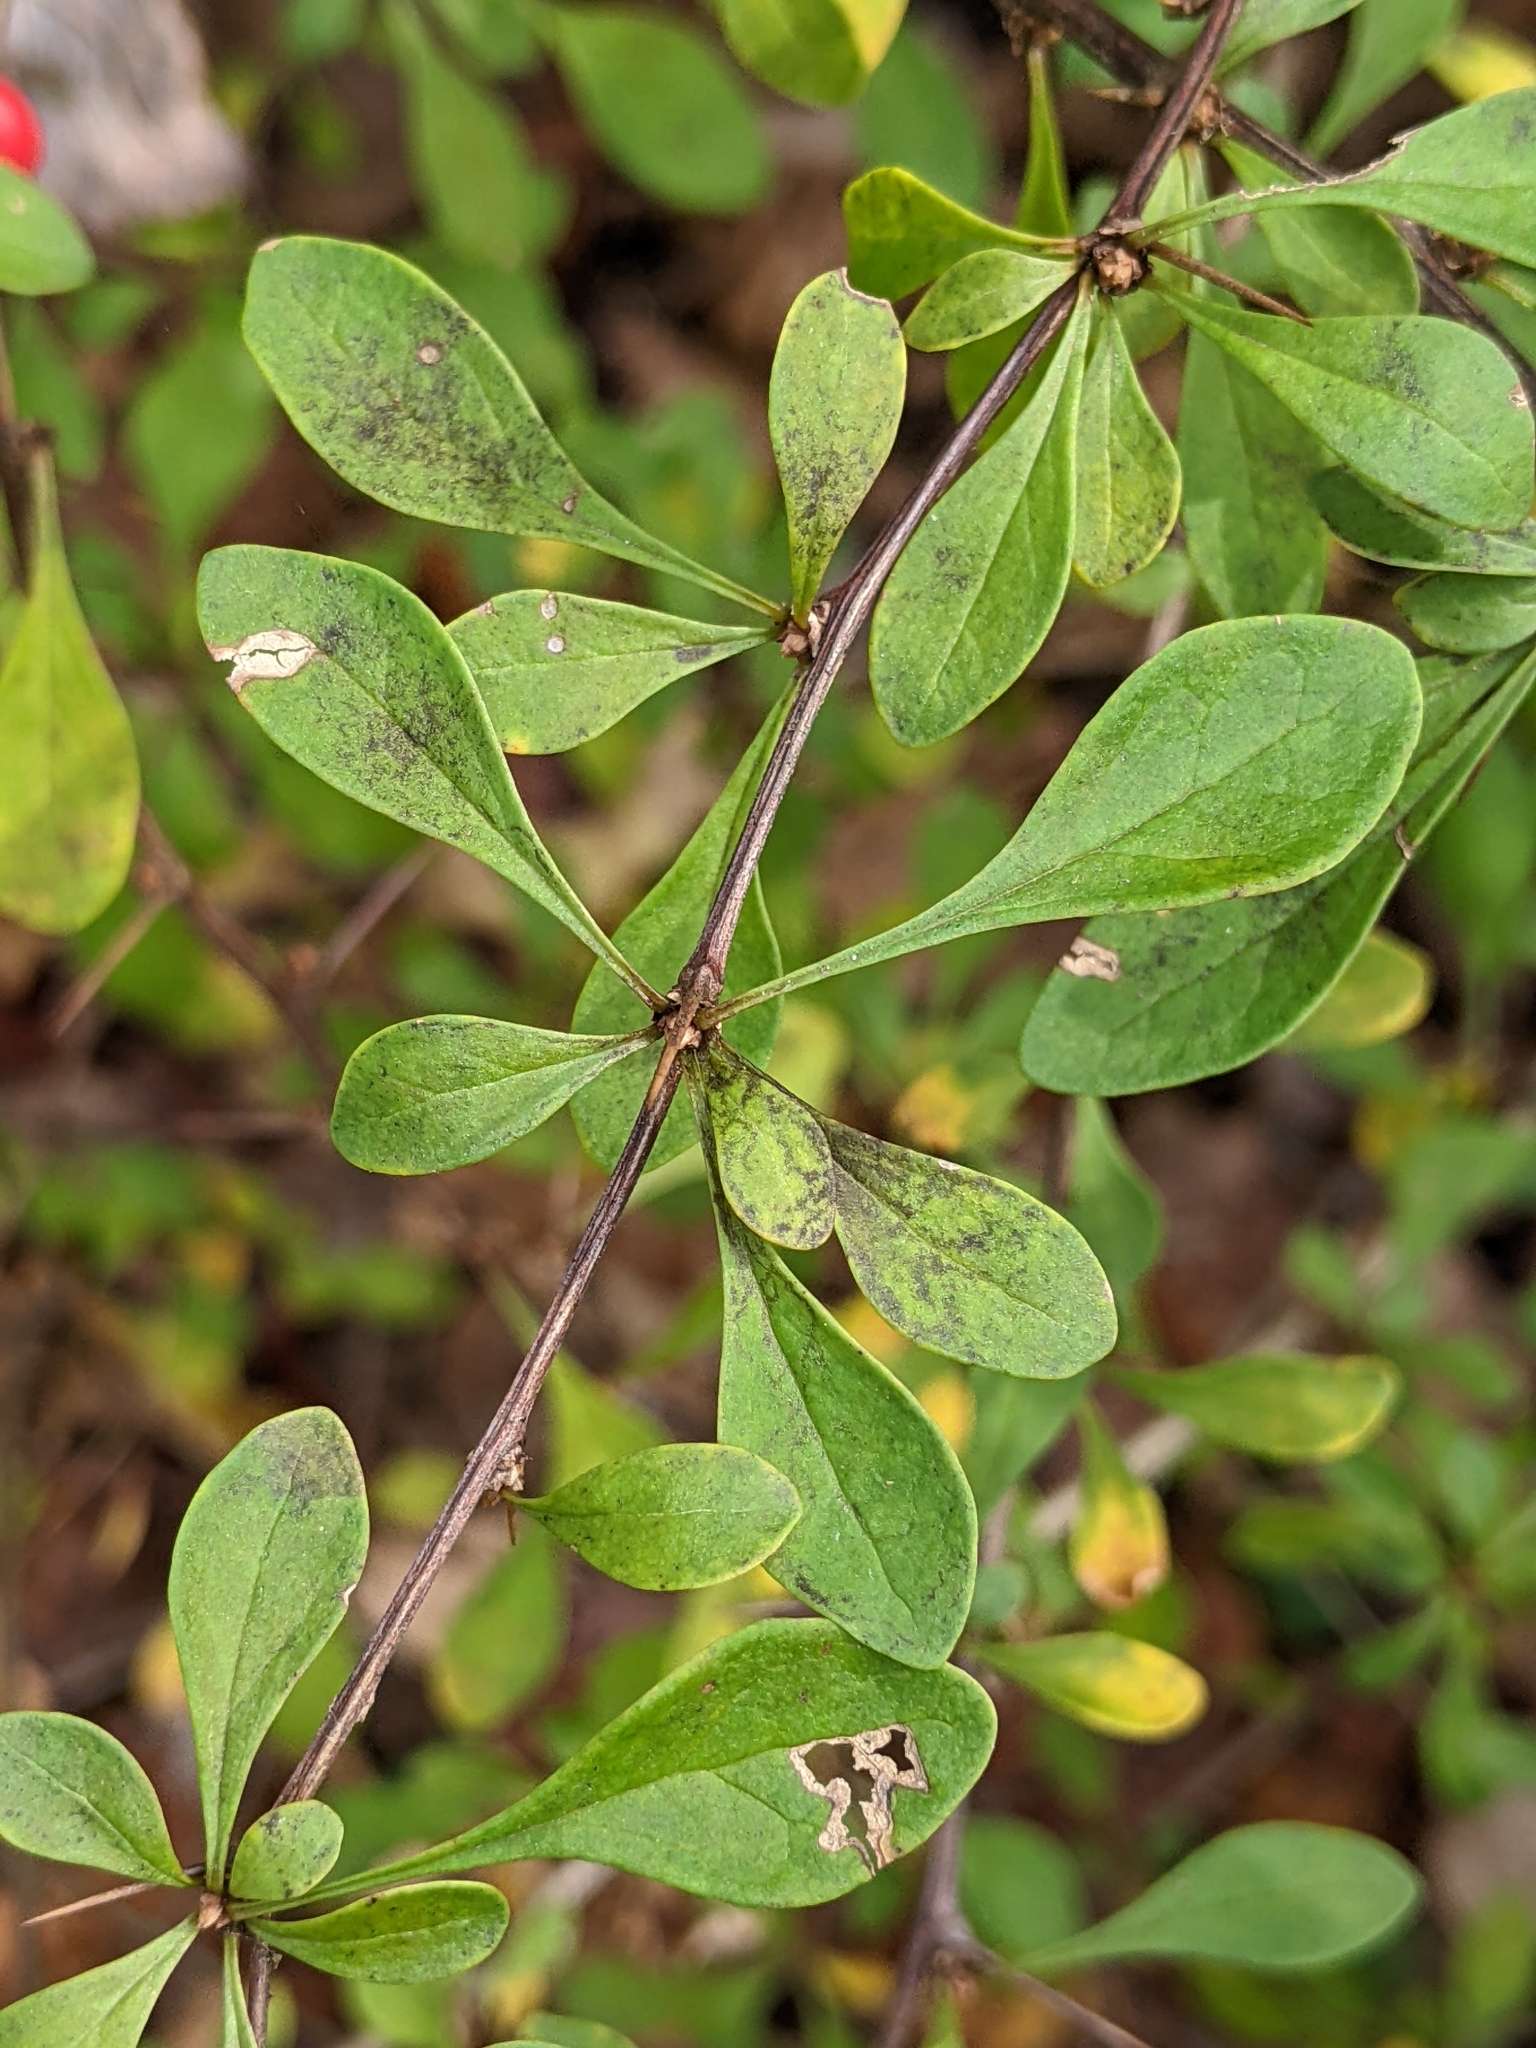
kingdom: Plantae
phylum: Tracheophyta
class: Magnoliopsida
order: Ranunculales
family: Berberidaceae
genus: Berberis
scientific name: Berberis thunbergii
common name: Japanese barberry
